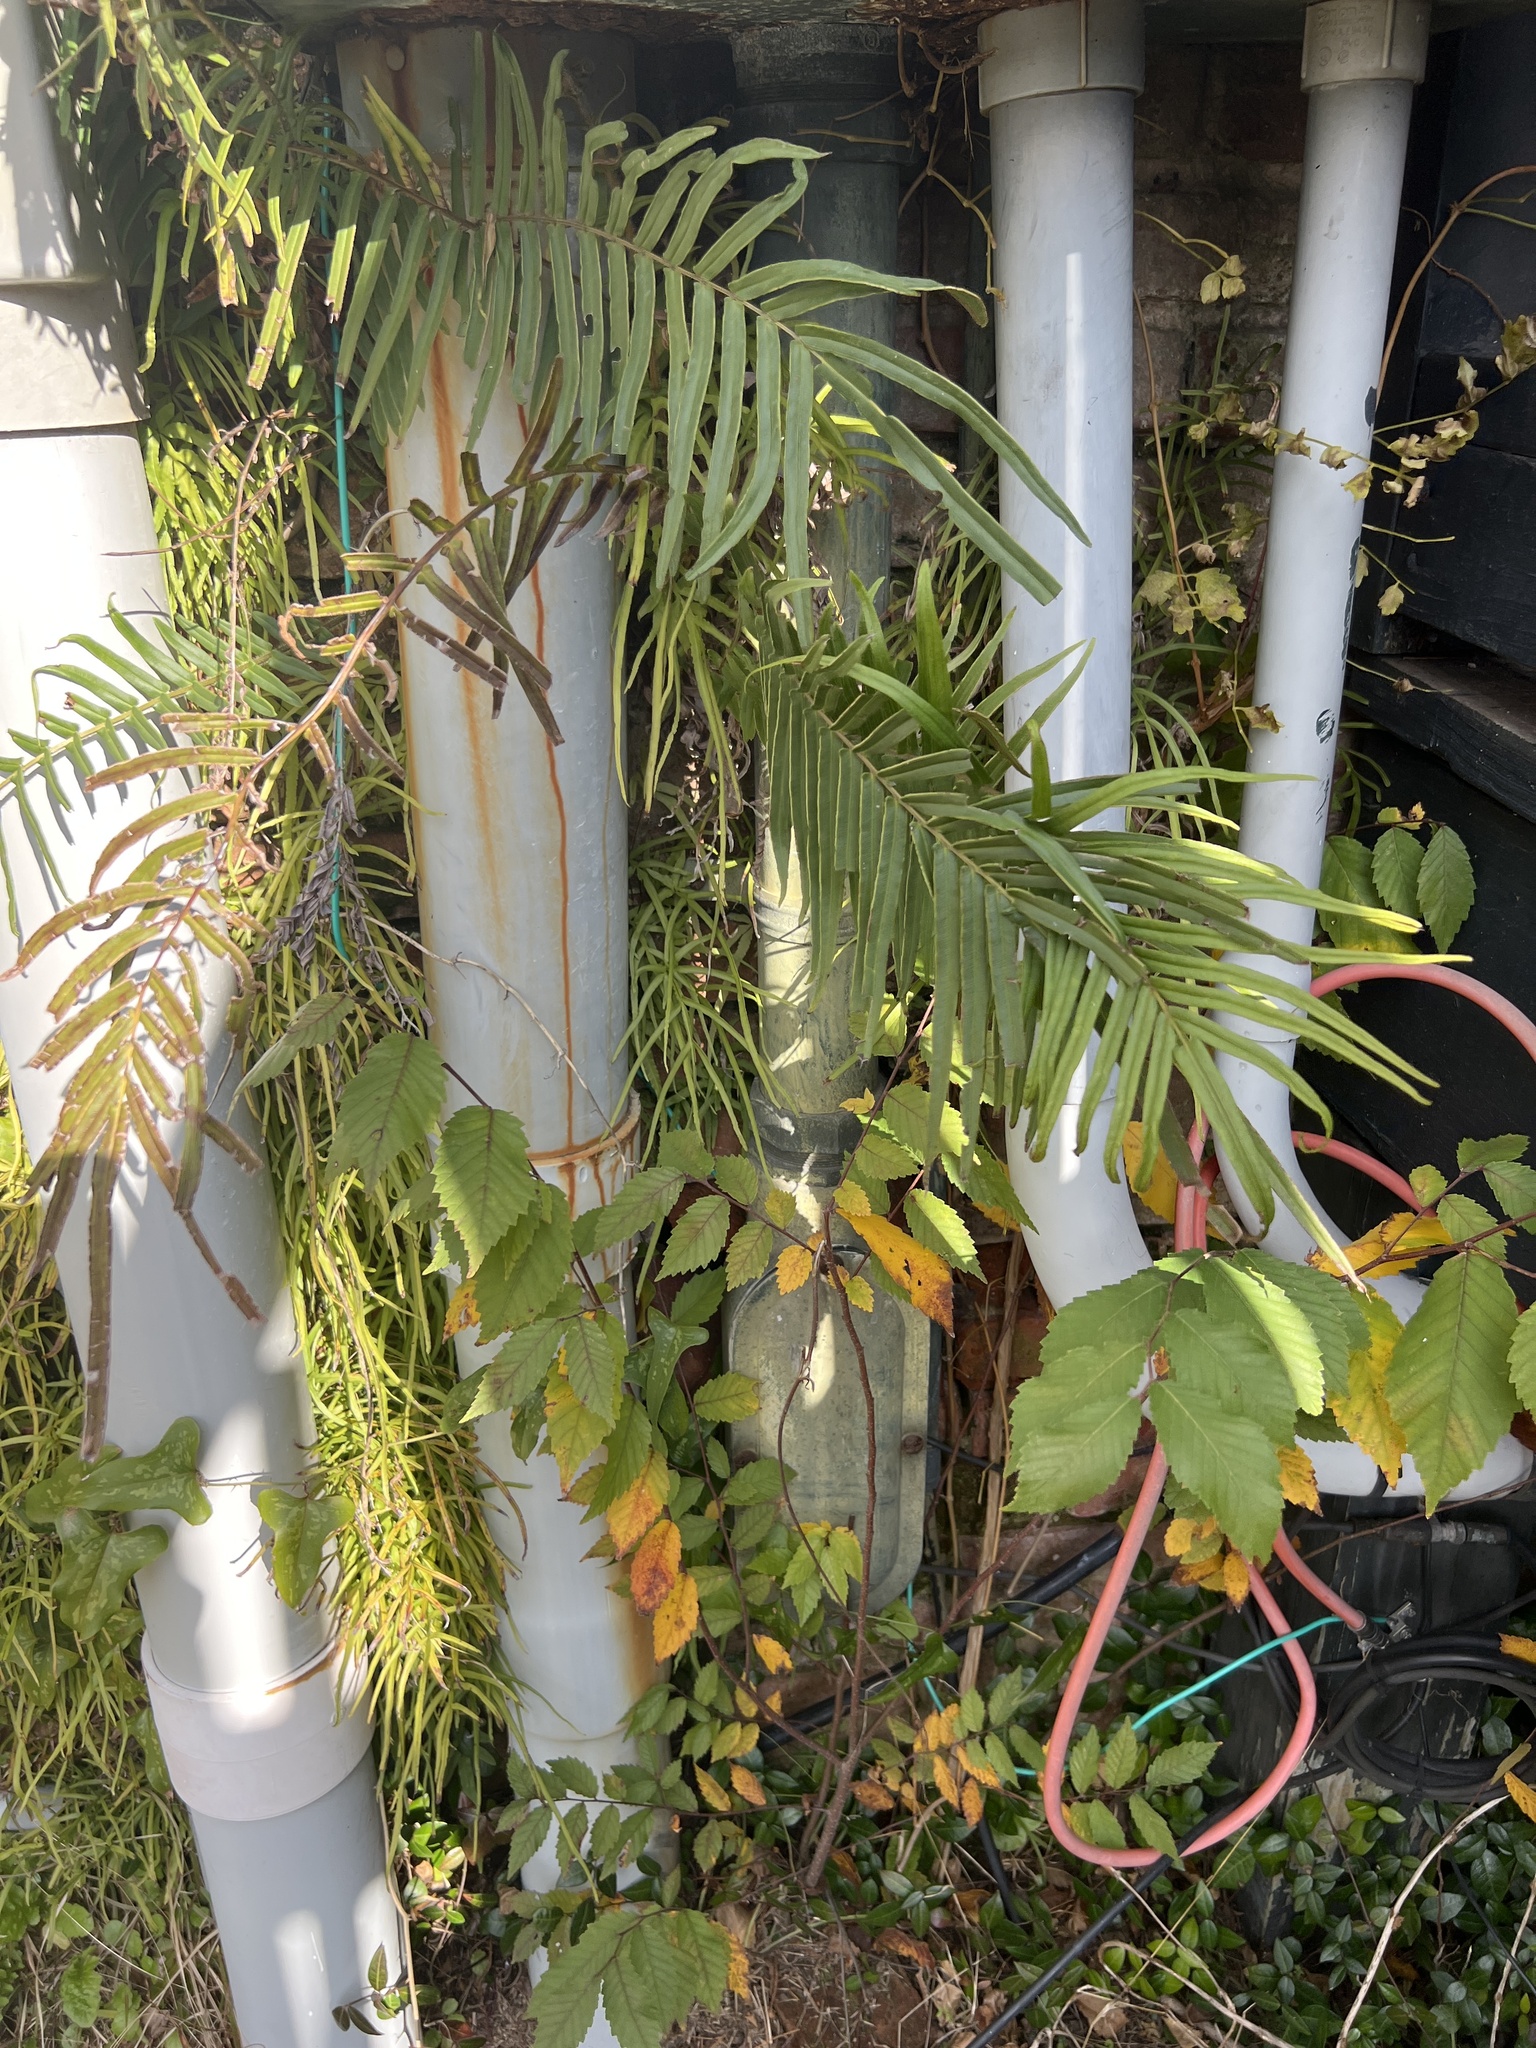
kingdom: Plantae
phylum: Tracheophyta
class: Polypodiopsida
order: Polypodiales
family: Pteridaceae
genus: Pteris
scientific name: Pteris vittata
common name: Ladder brake
